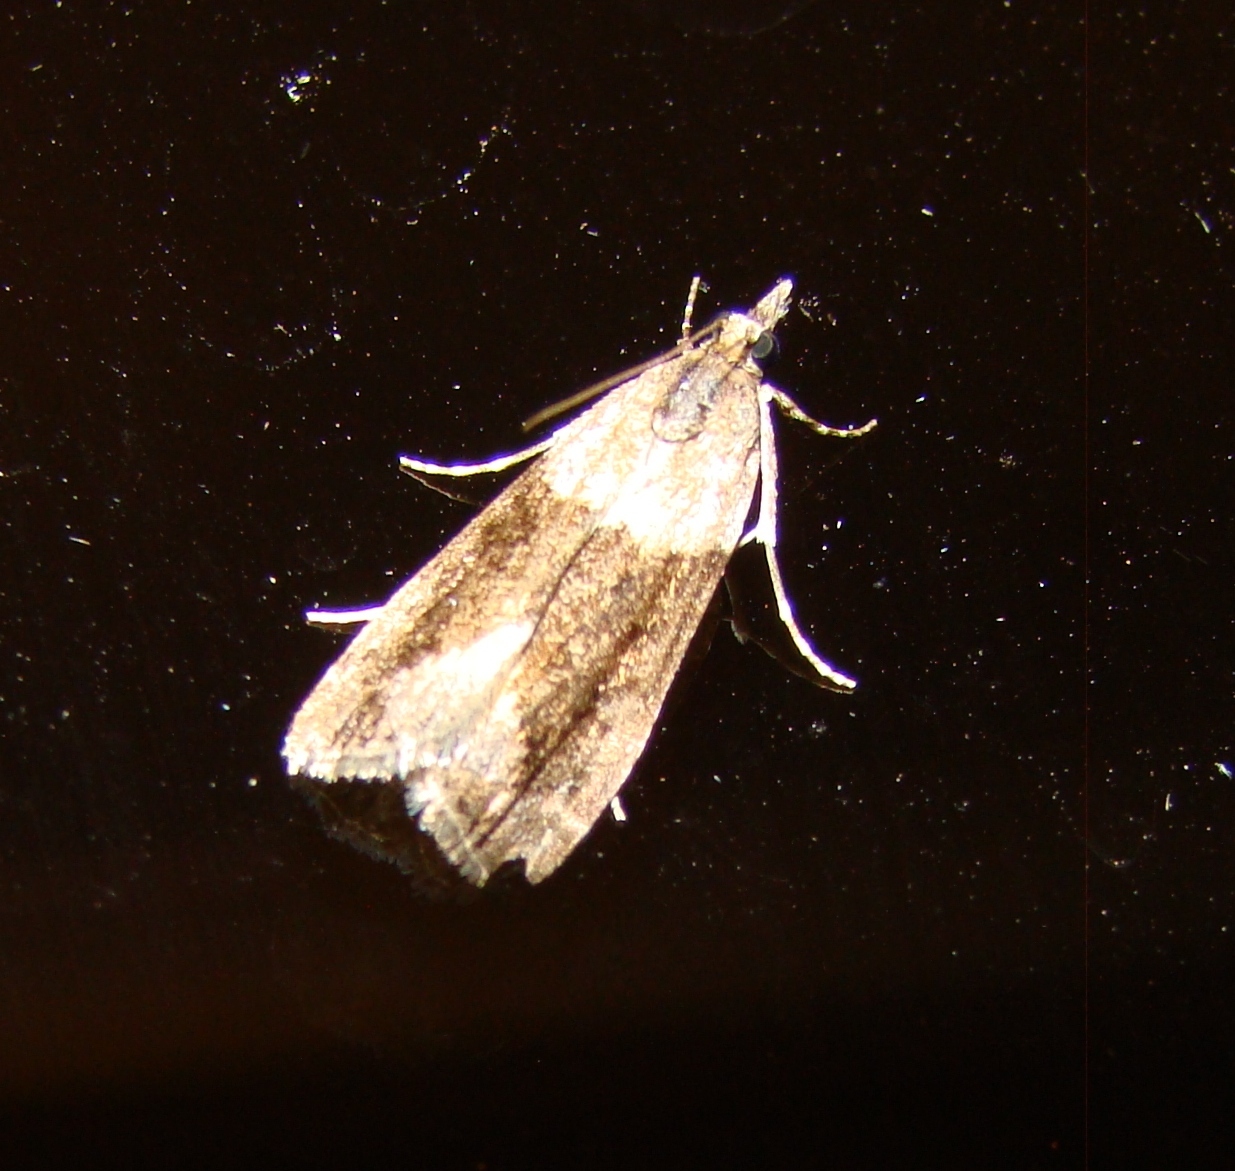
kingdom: Animalia
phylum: Arthropoda
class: Insecta
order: Lepidoptera
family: Crambidae
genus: Eudonia
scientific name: Eudonia submarginalis
